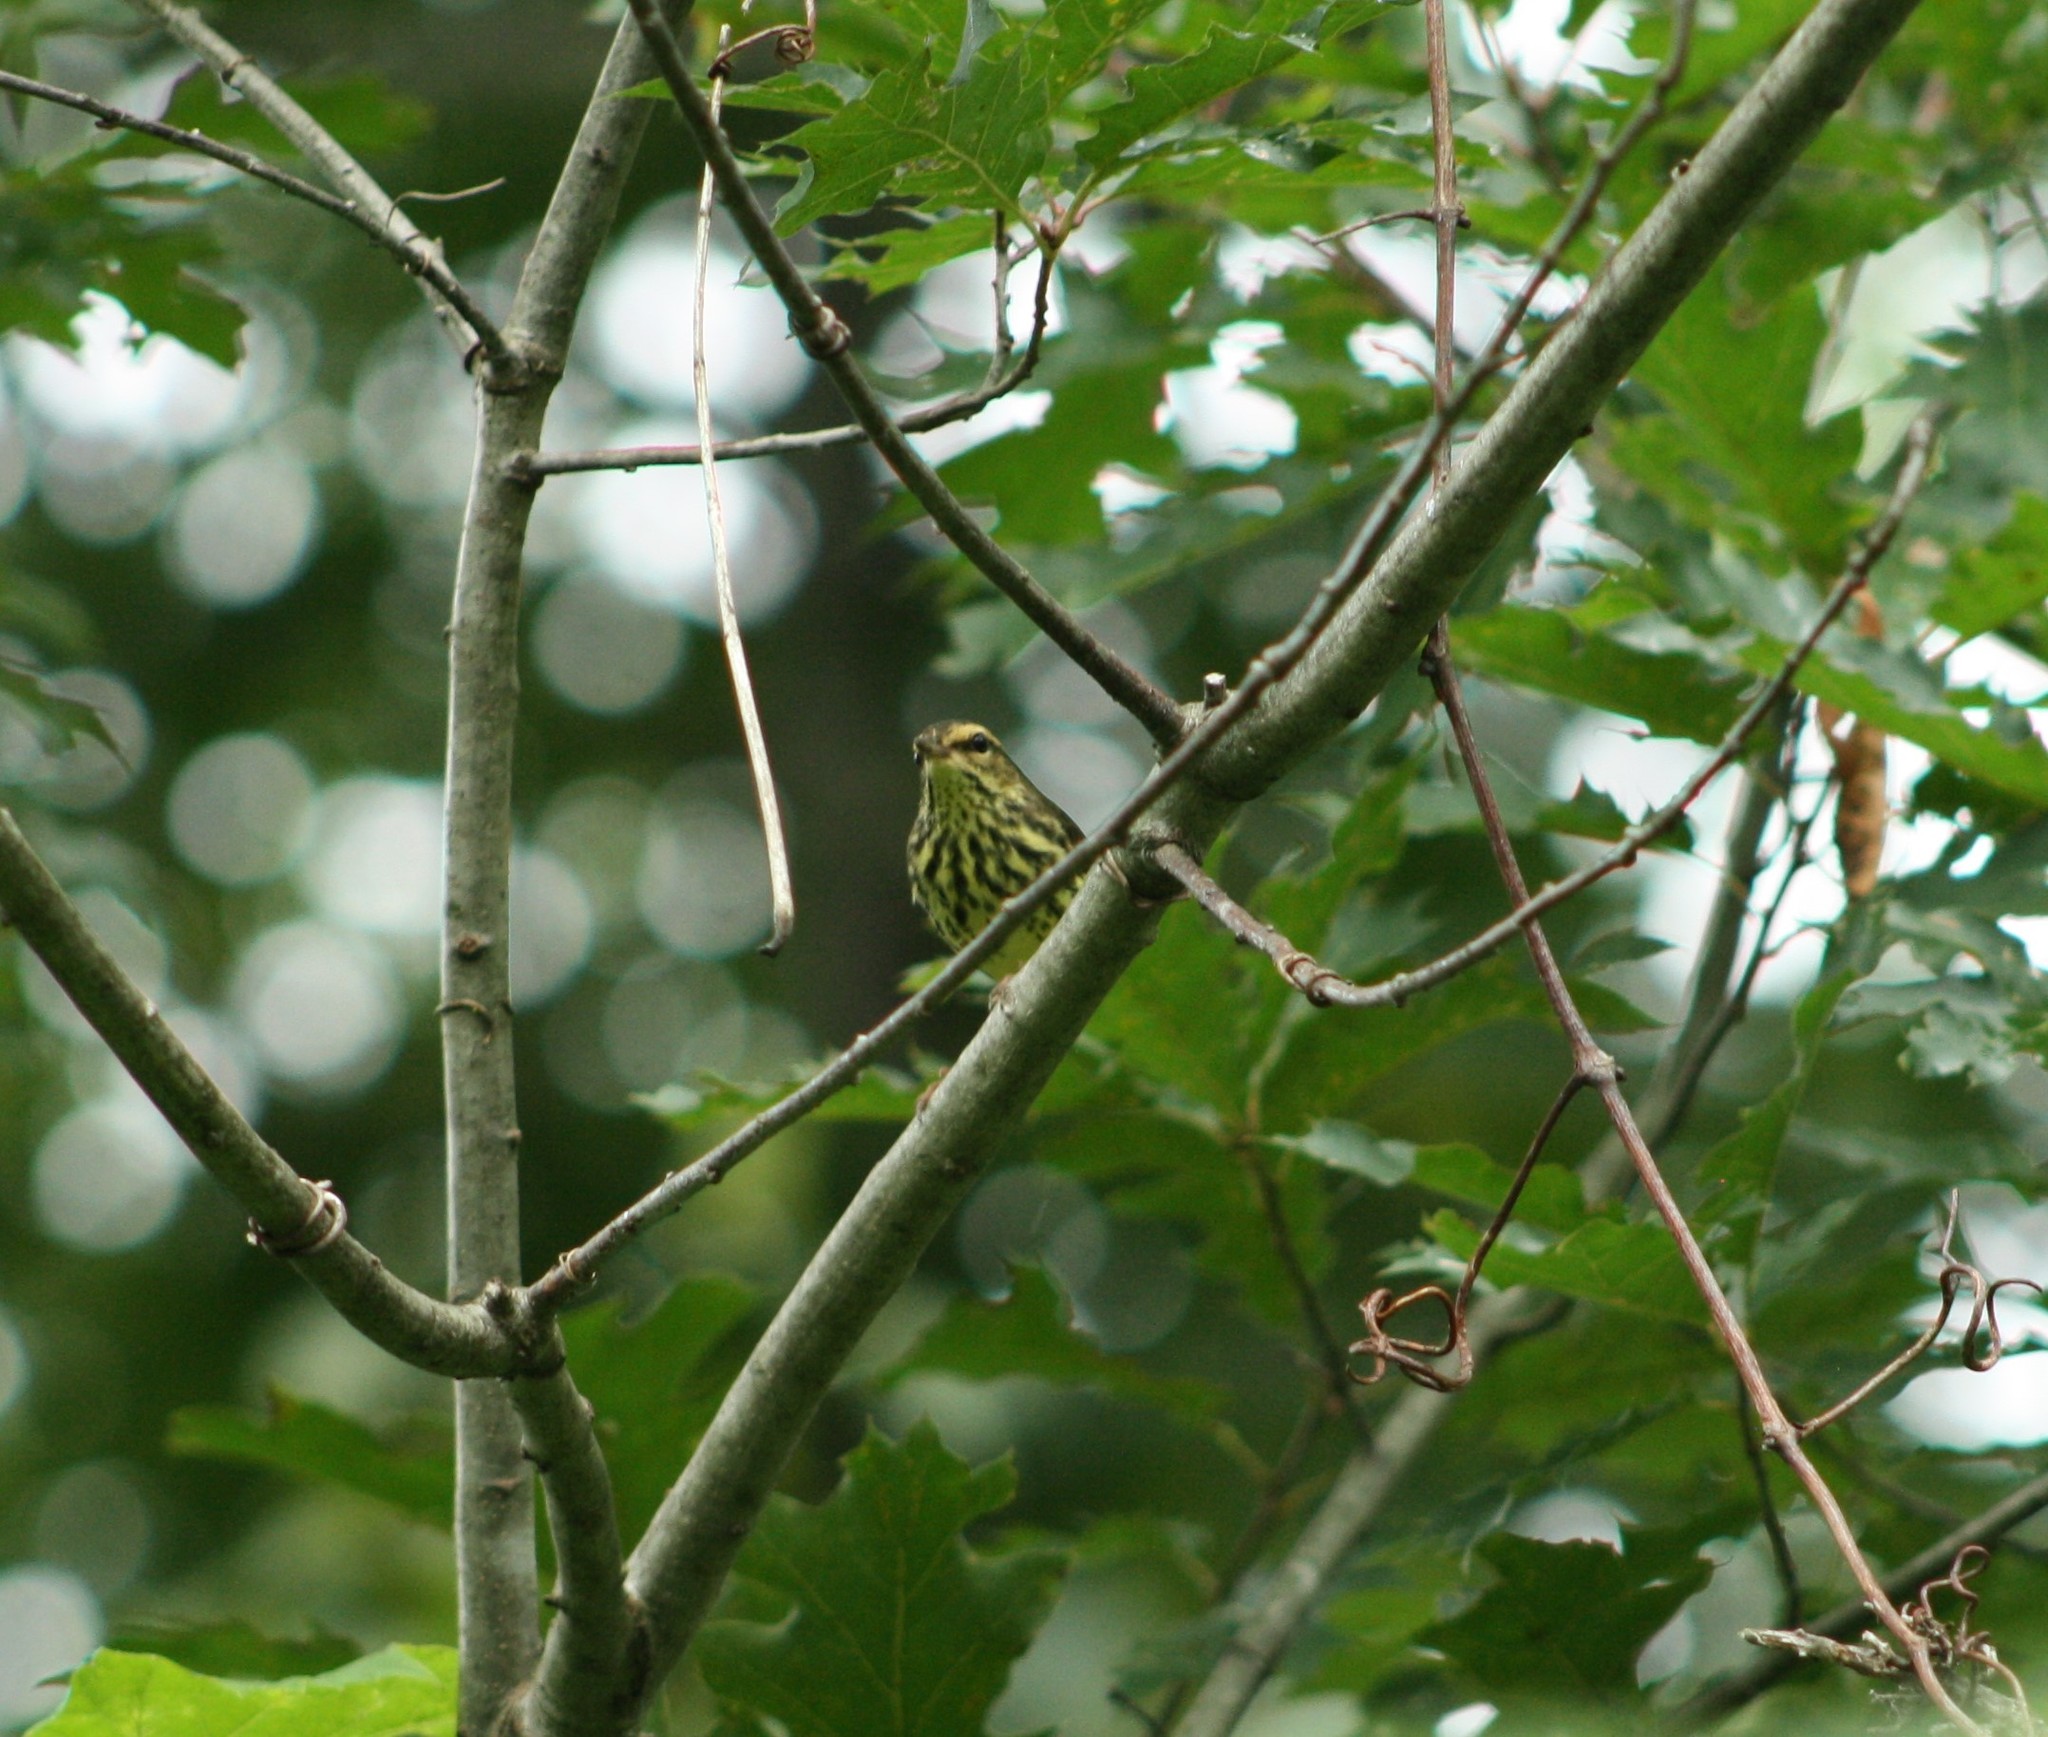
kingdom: Animalia
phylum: Chordata
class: Aves
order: Passeriformes
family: Parulidae
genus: Parkesia
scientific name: Parkesia noveboracensis
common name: Northern waterthrush
